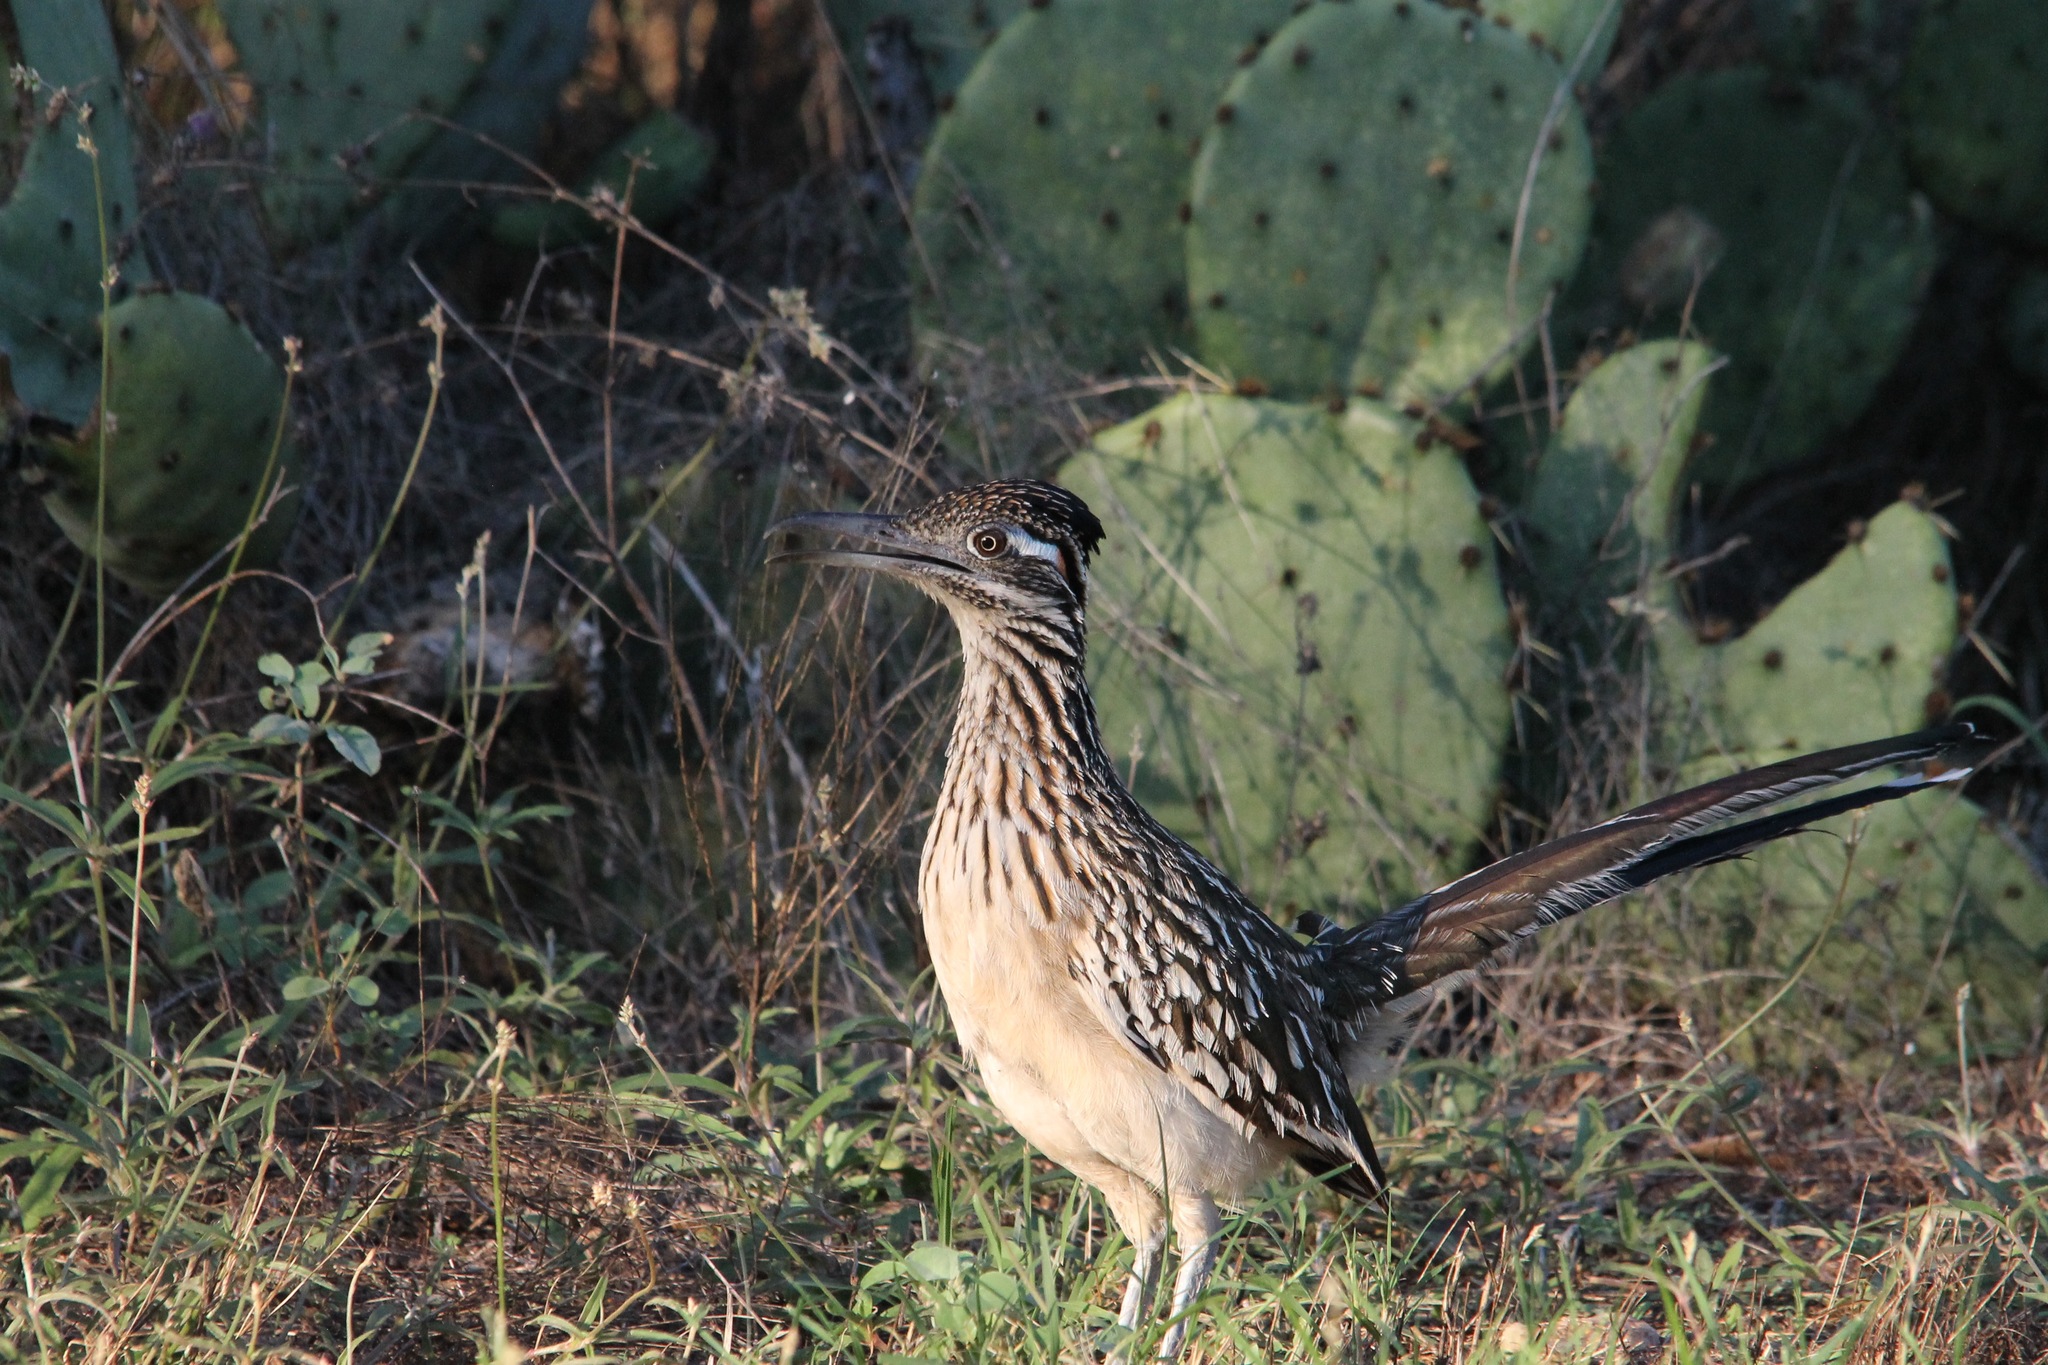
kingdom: Animalia
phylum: Chordata
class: Aves
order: Cuculiformes
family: Cuculidae
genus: Geococcyx
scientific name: Geococcyx californianus
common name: Greater roadrunner
